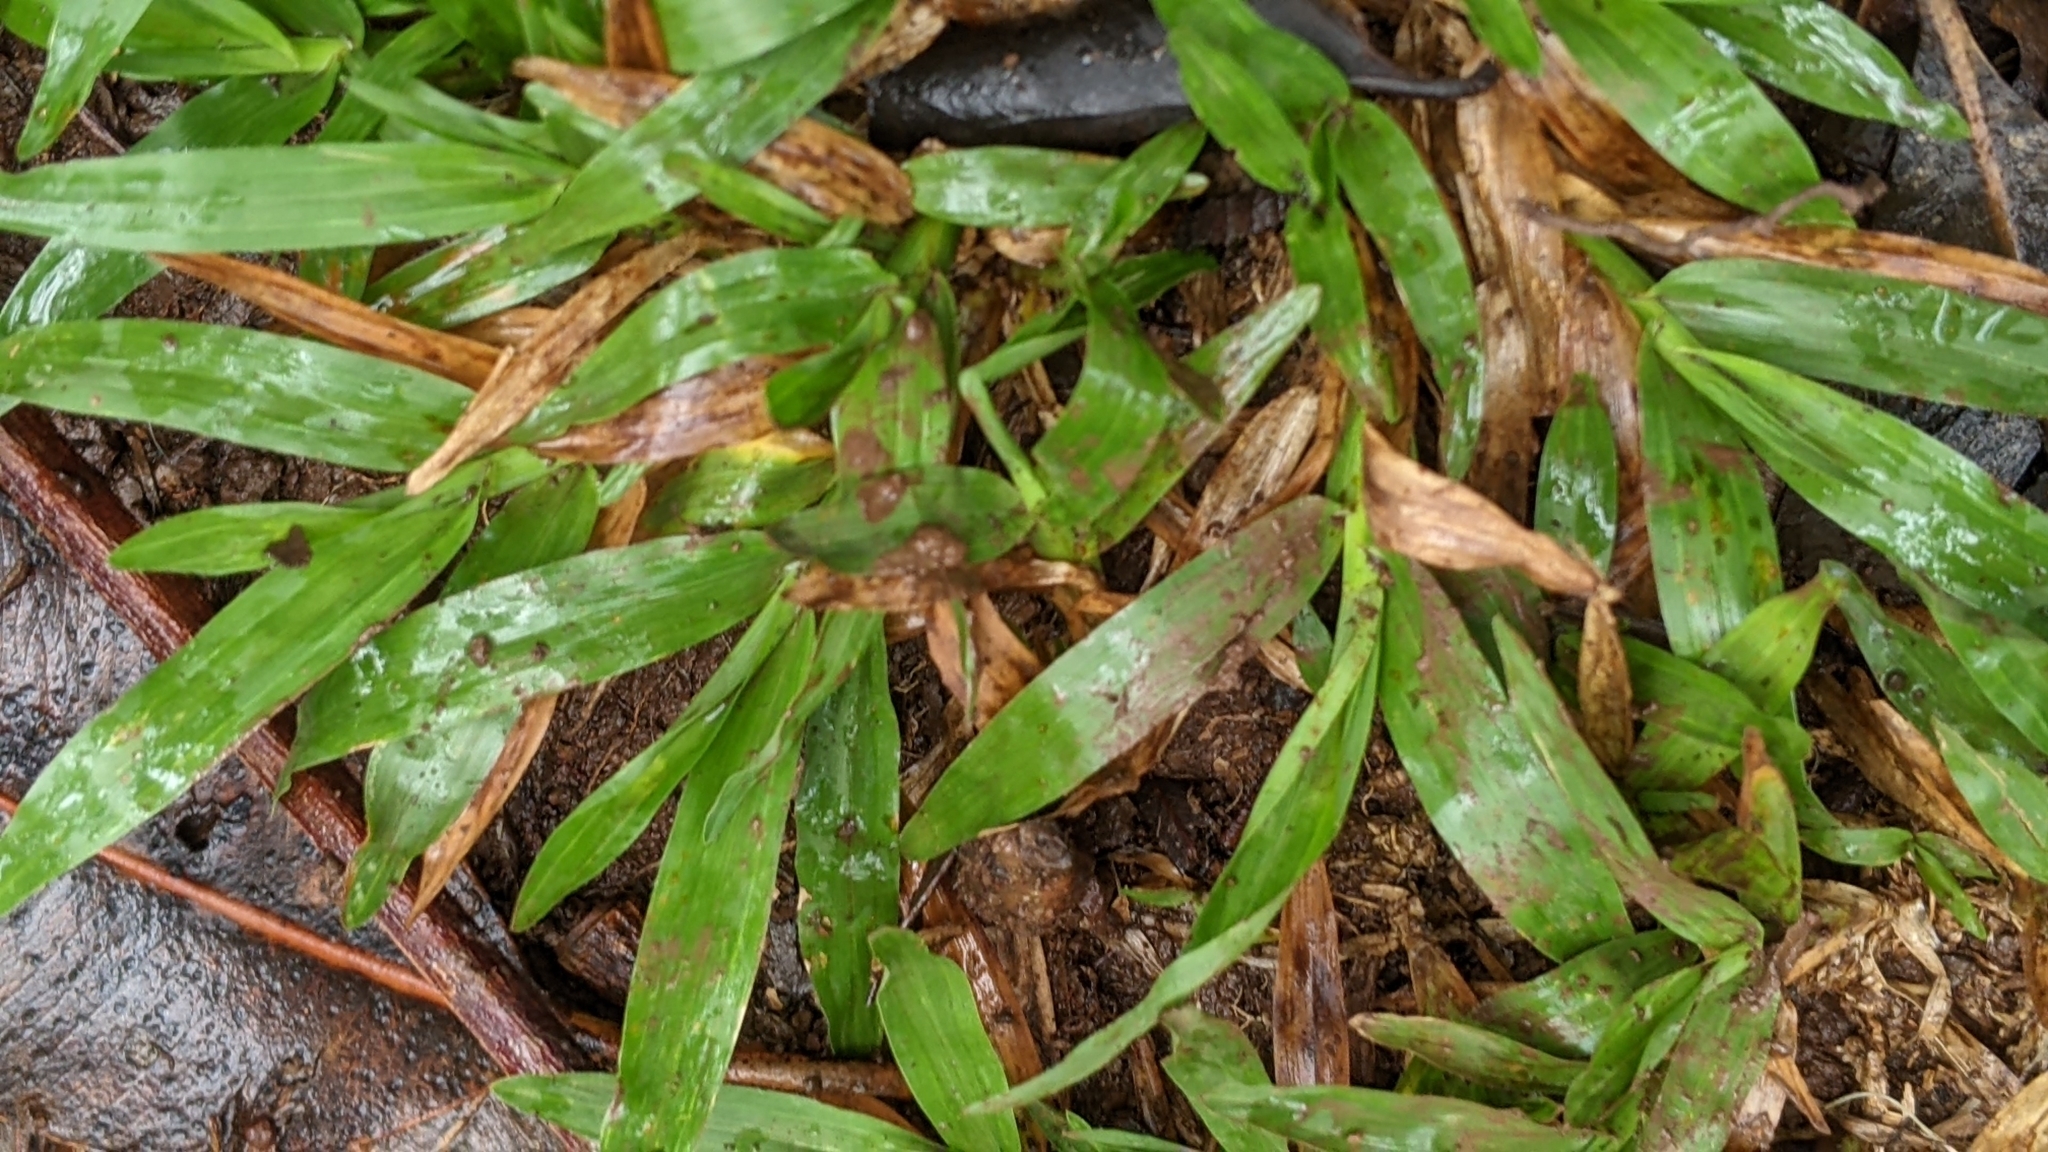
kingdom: Plantae
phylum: Tracheophyta
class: Liliopsida
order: Poales
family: Poaceae
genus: Axonopus
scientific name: Axonopus compressus
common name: American carpet grass
